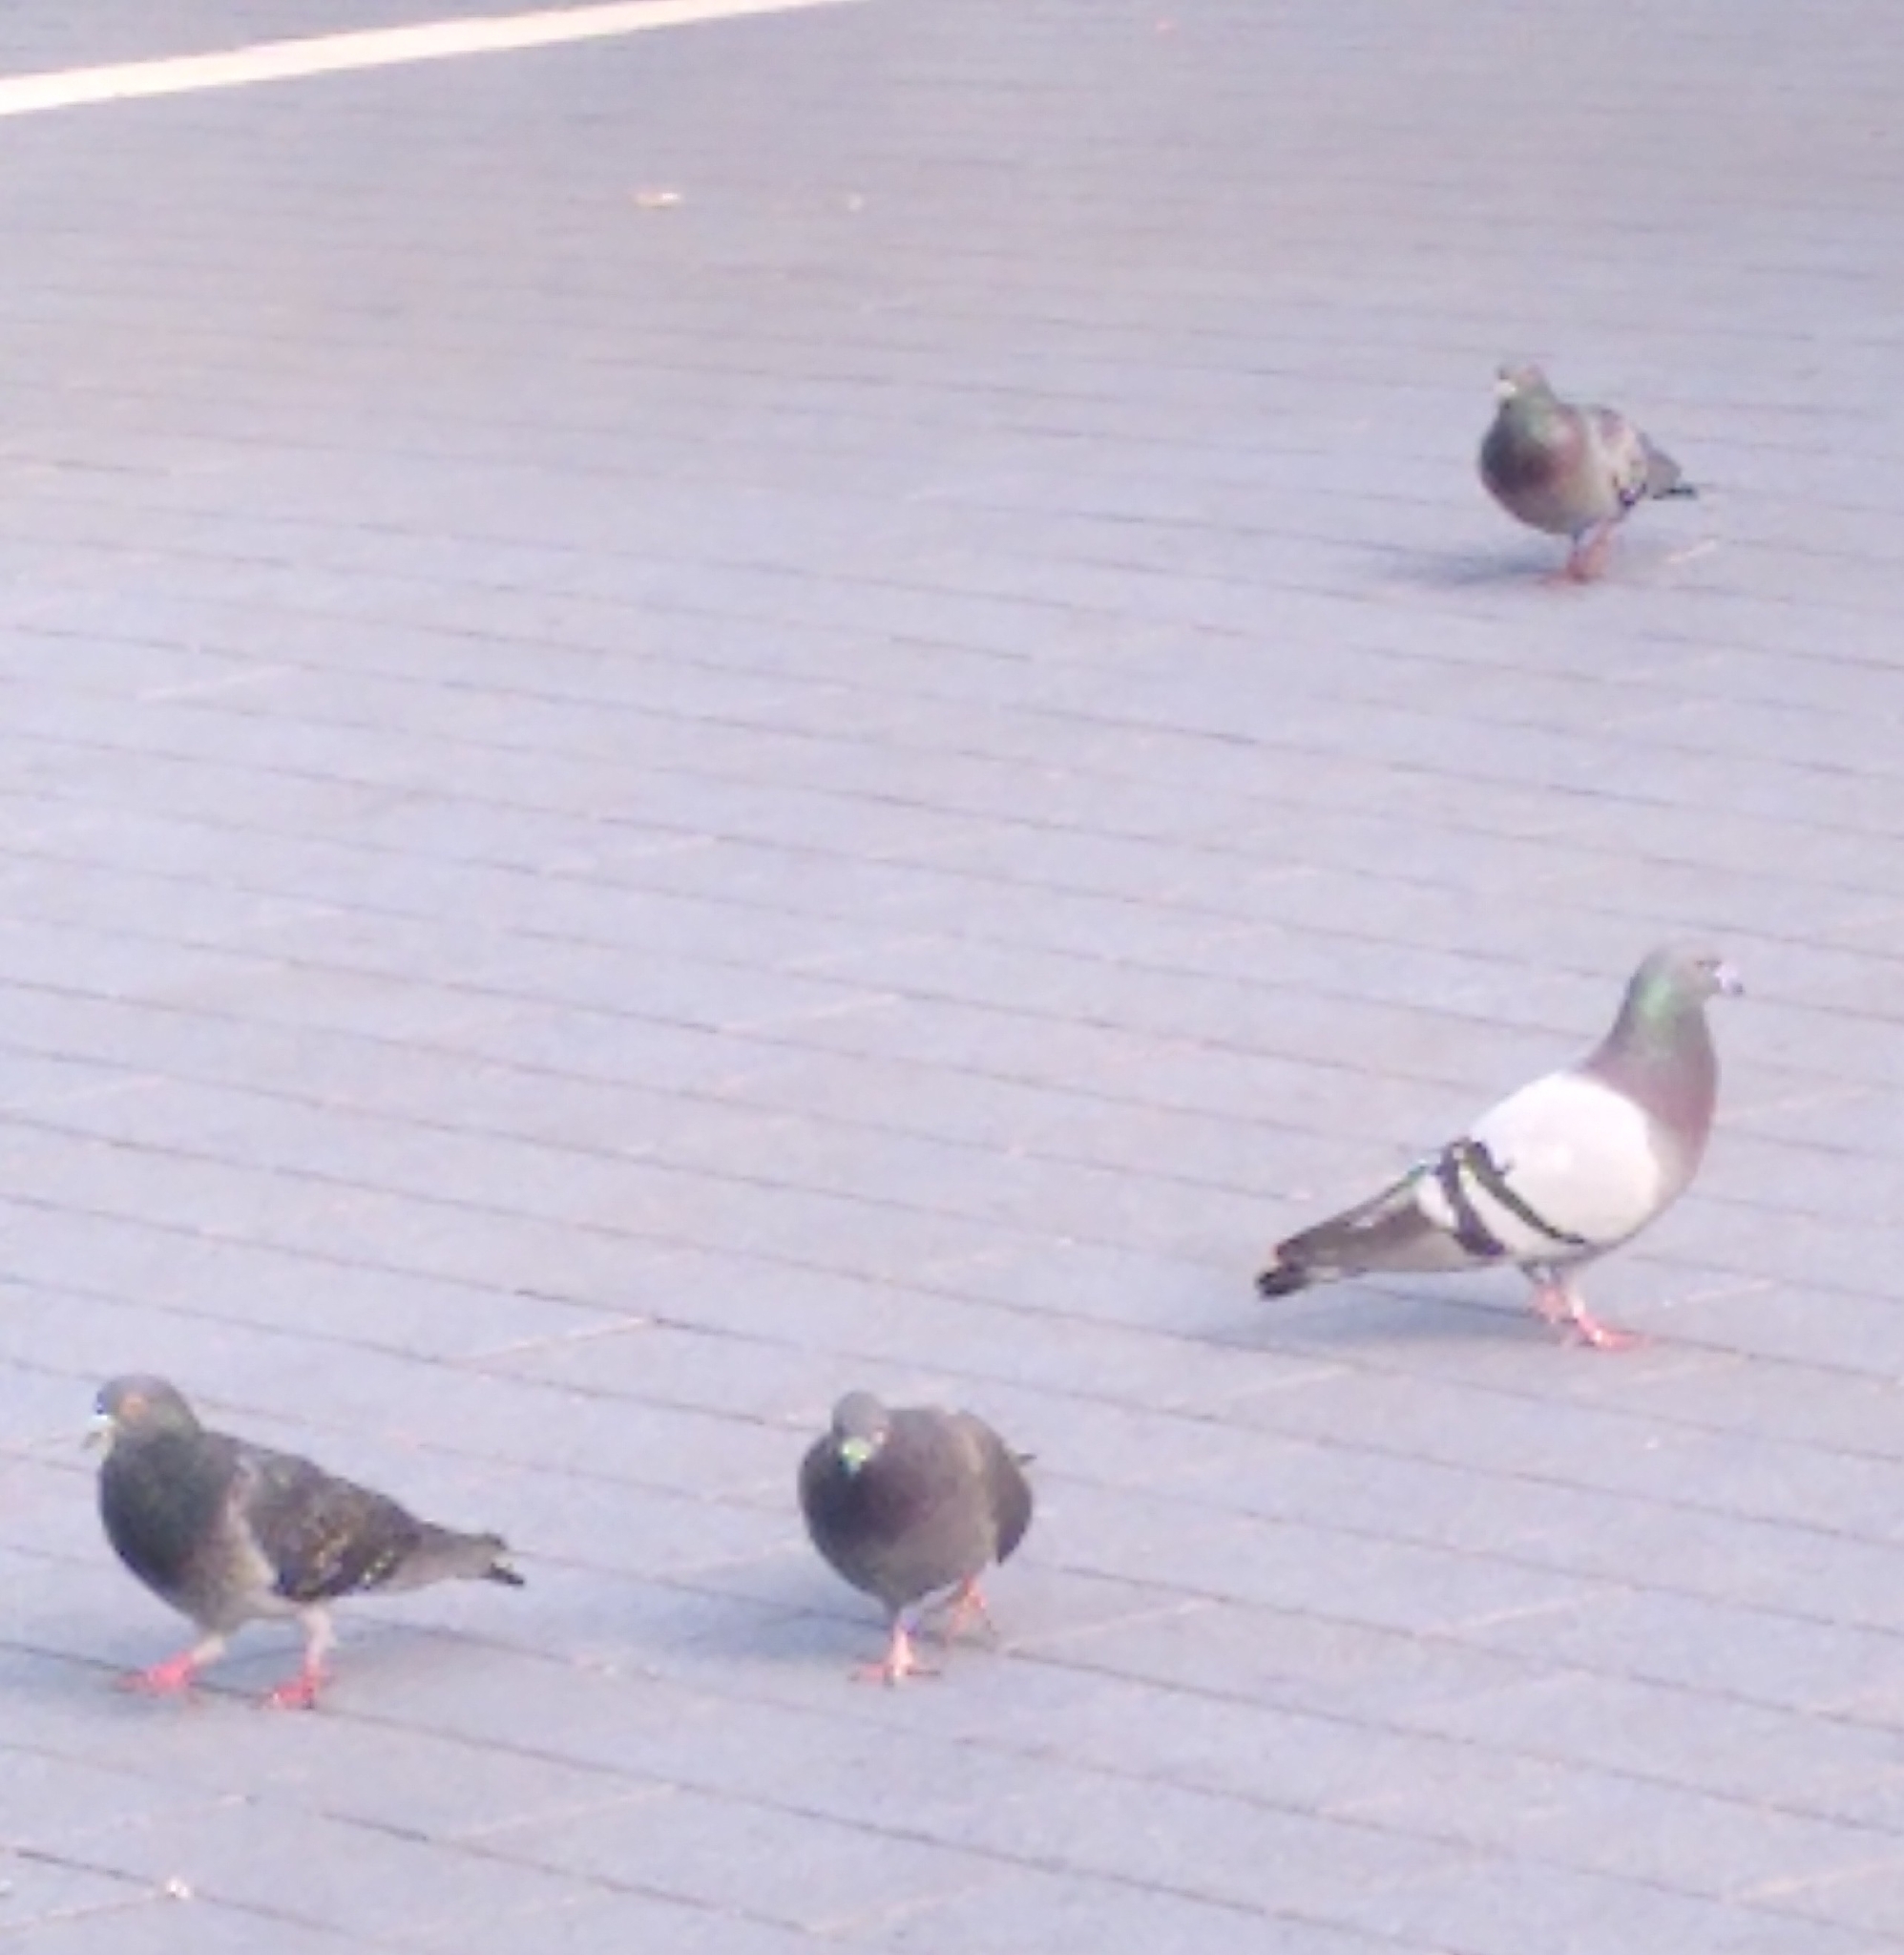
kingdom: Animalia
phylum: Chordata
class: Aves
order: Columbiformes
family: Columbidae
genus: Columba
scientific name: Columba livia
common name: Rock pigeon
